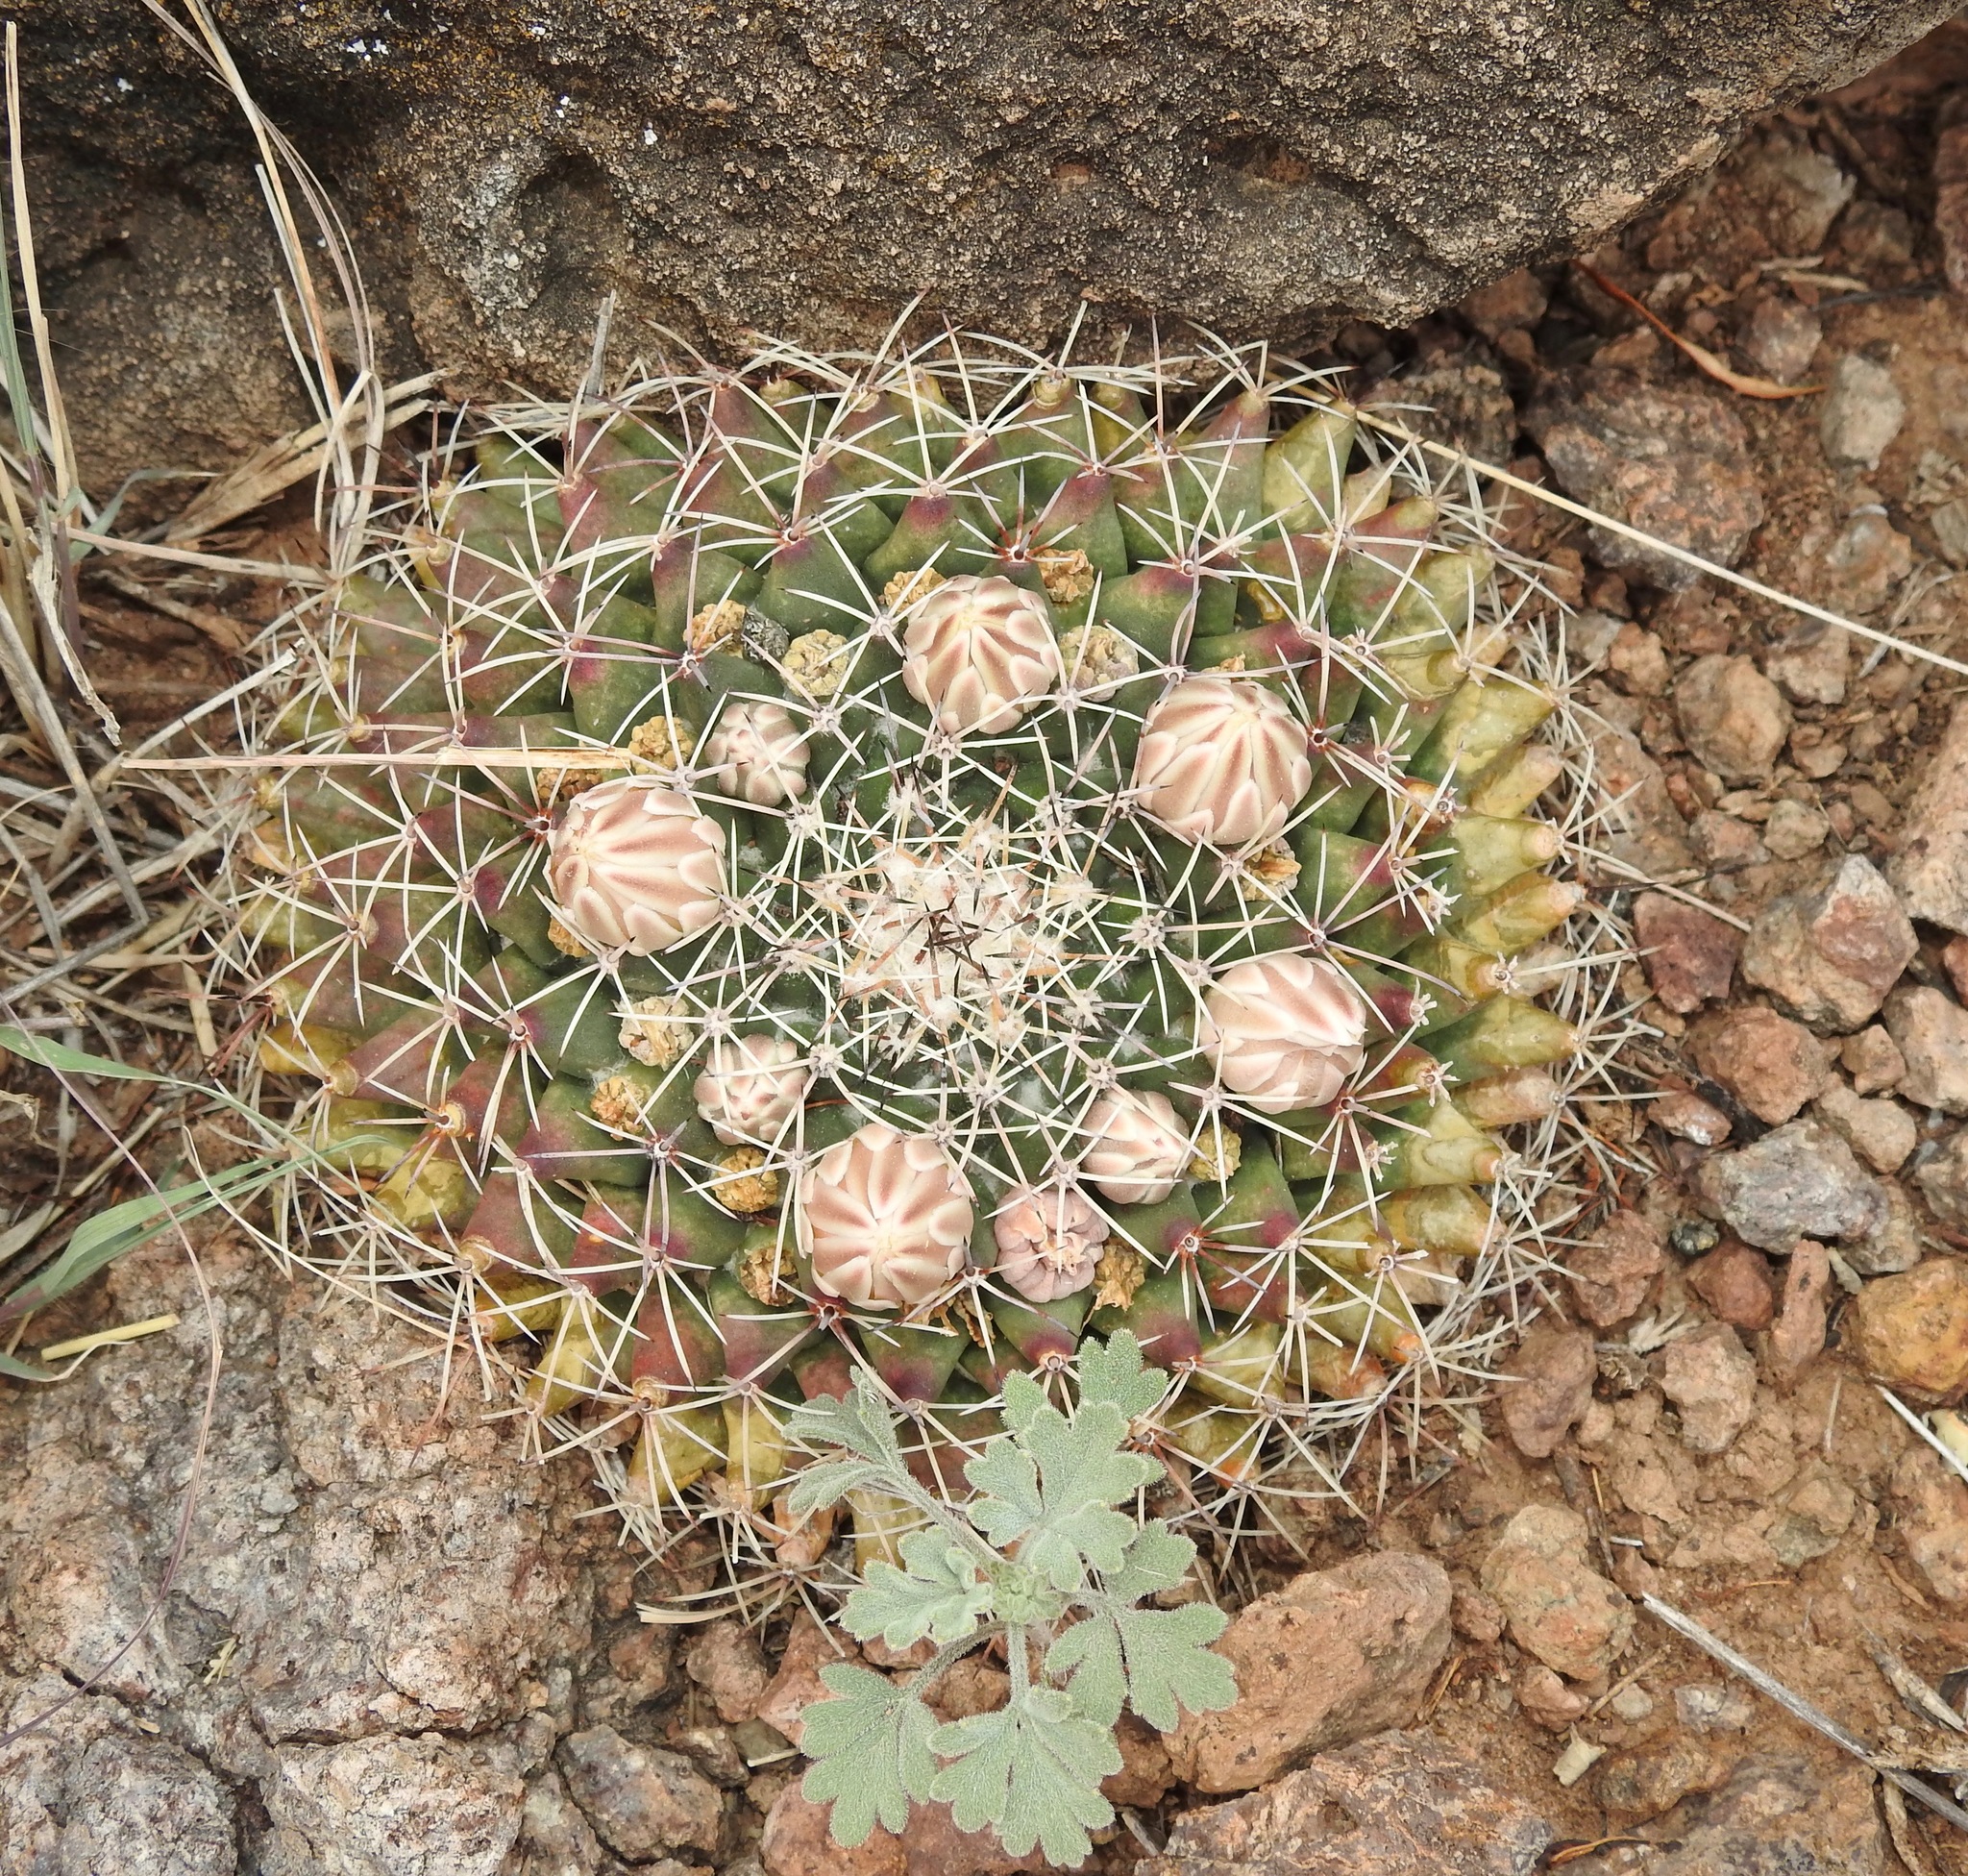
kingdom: Plantae
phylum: Tracheophyta
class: Magnoliopsida
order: Caryophyllales
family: Cactaceae
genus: Mammillaria
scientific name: Mammillaria heyderi
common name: Little nipple cactus
